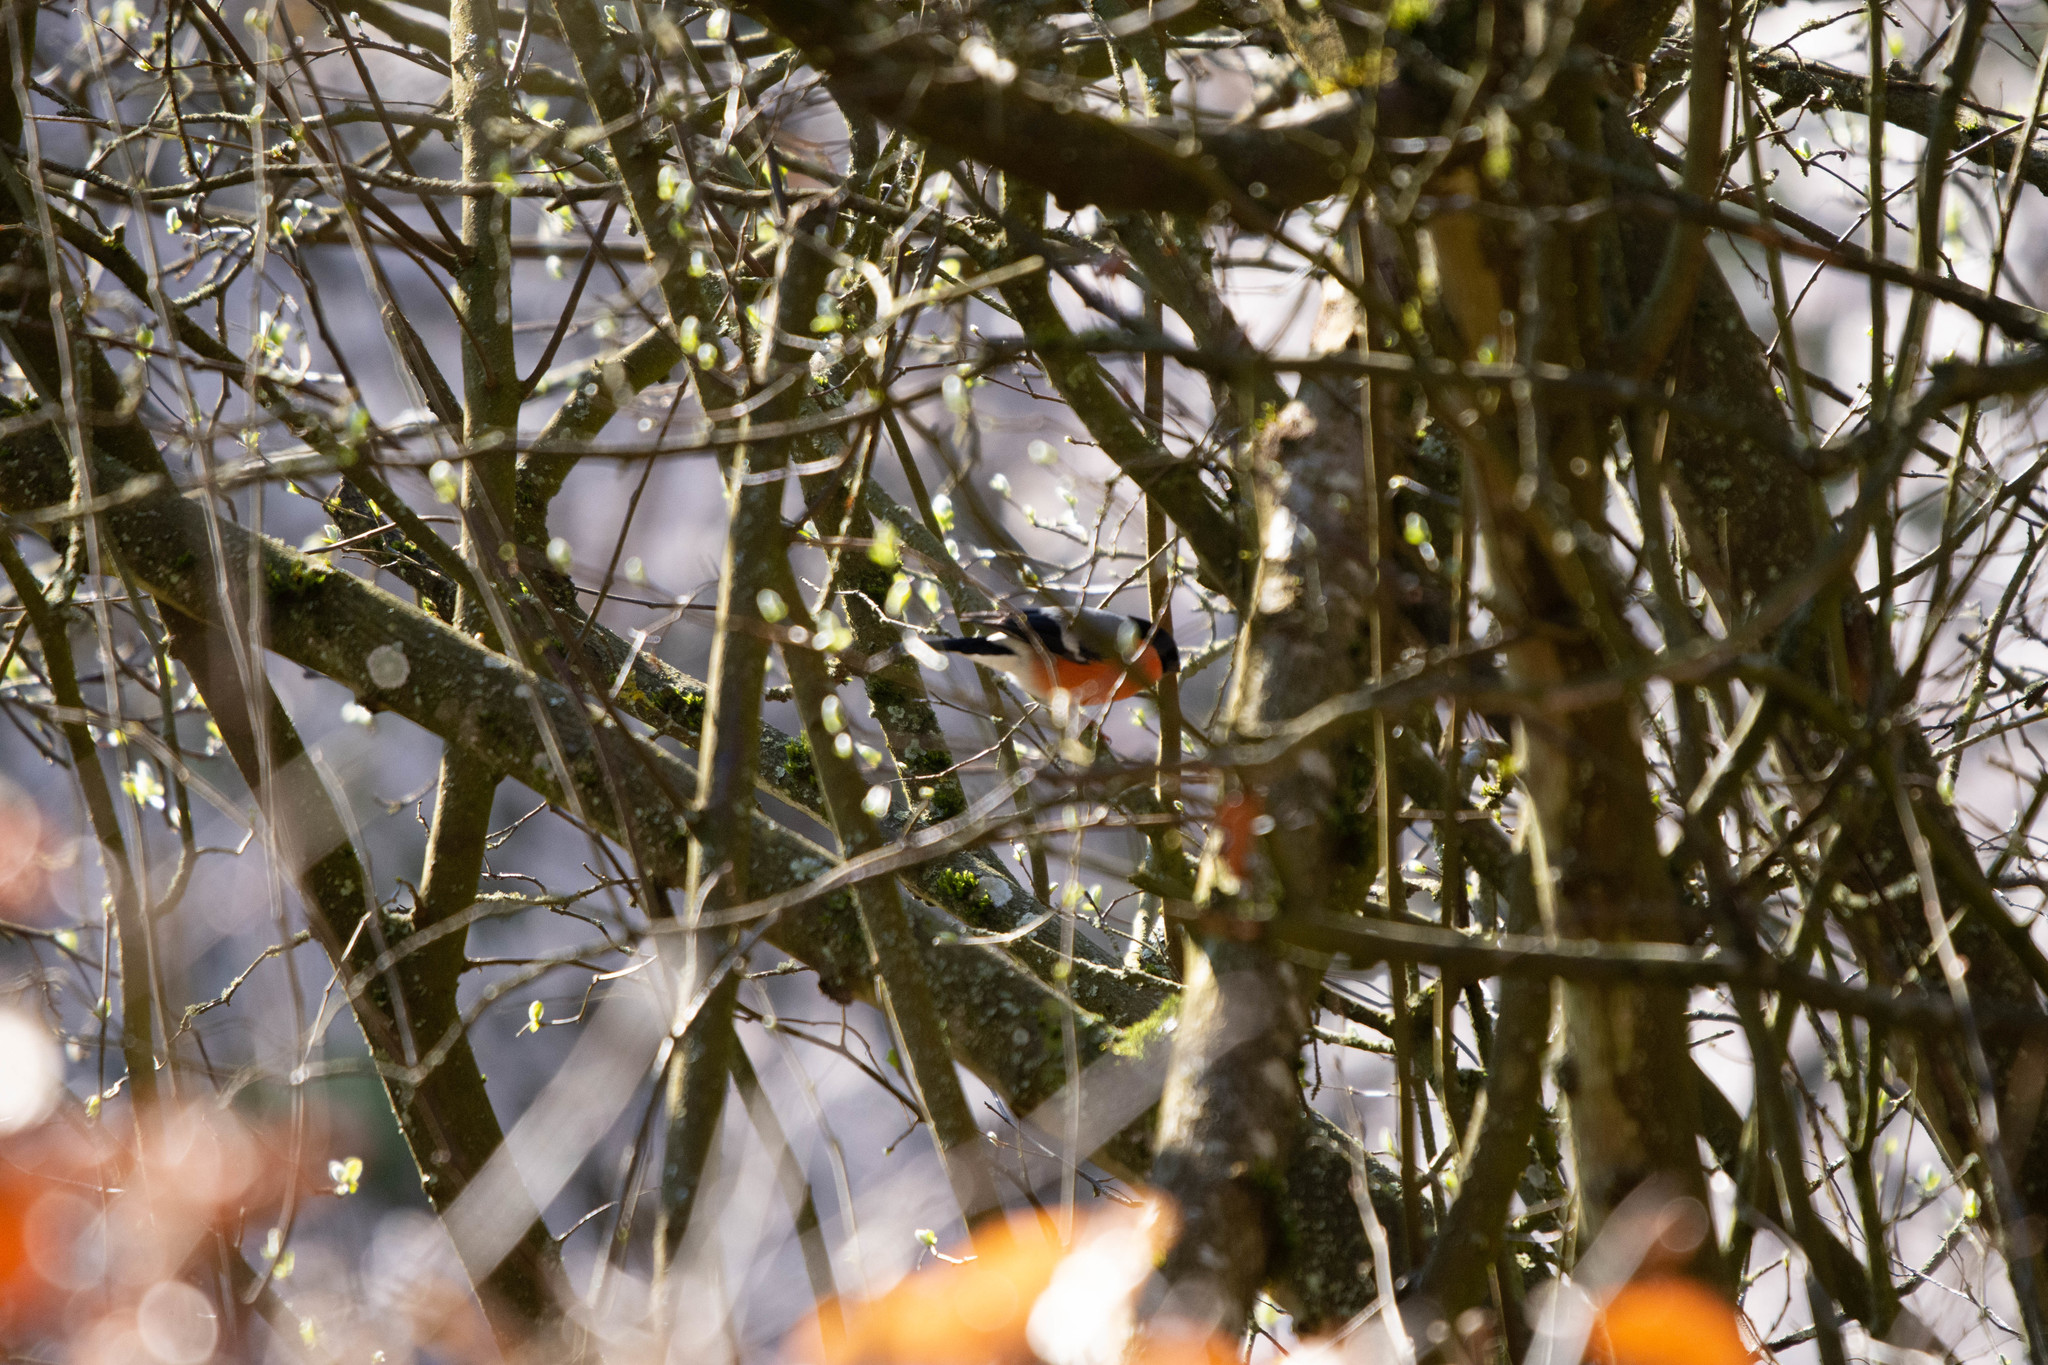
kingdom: Animalia
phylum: Chordata
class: Aves
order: Passeriformes
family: Fringillidae
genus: Pyrrhula
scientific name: Pyrrhula pyrrhula
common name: Eurasian bullfinch
